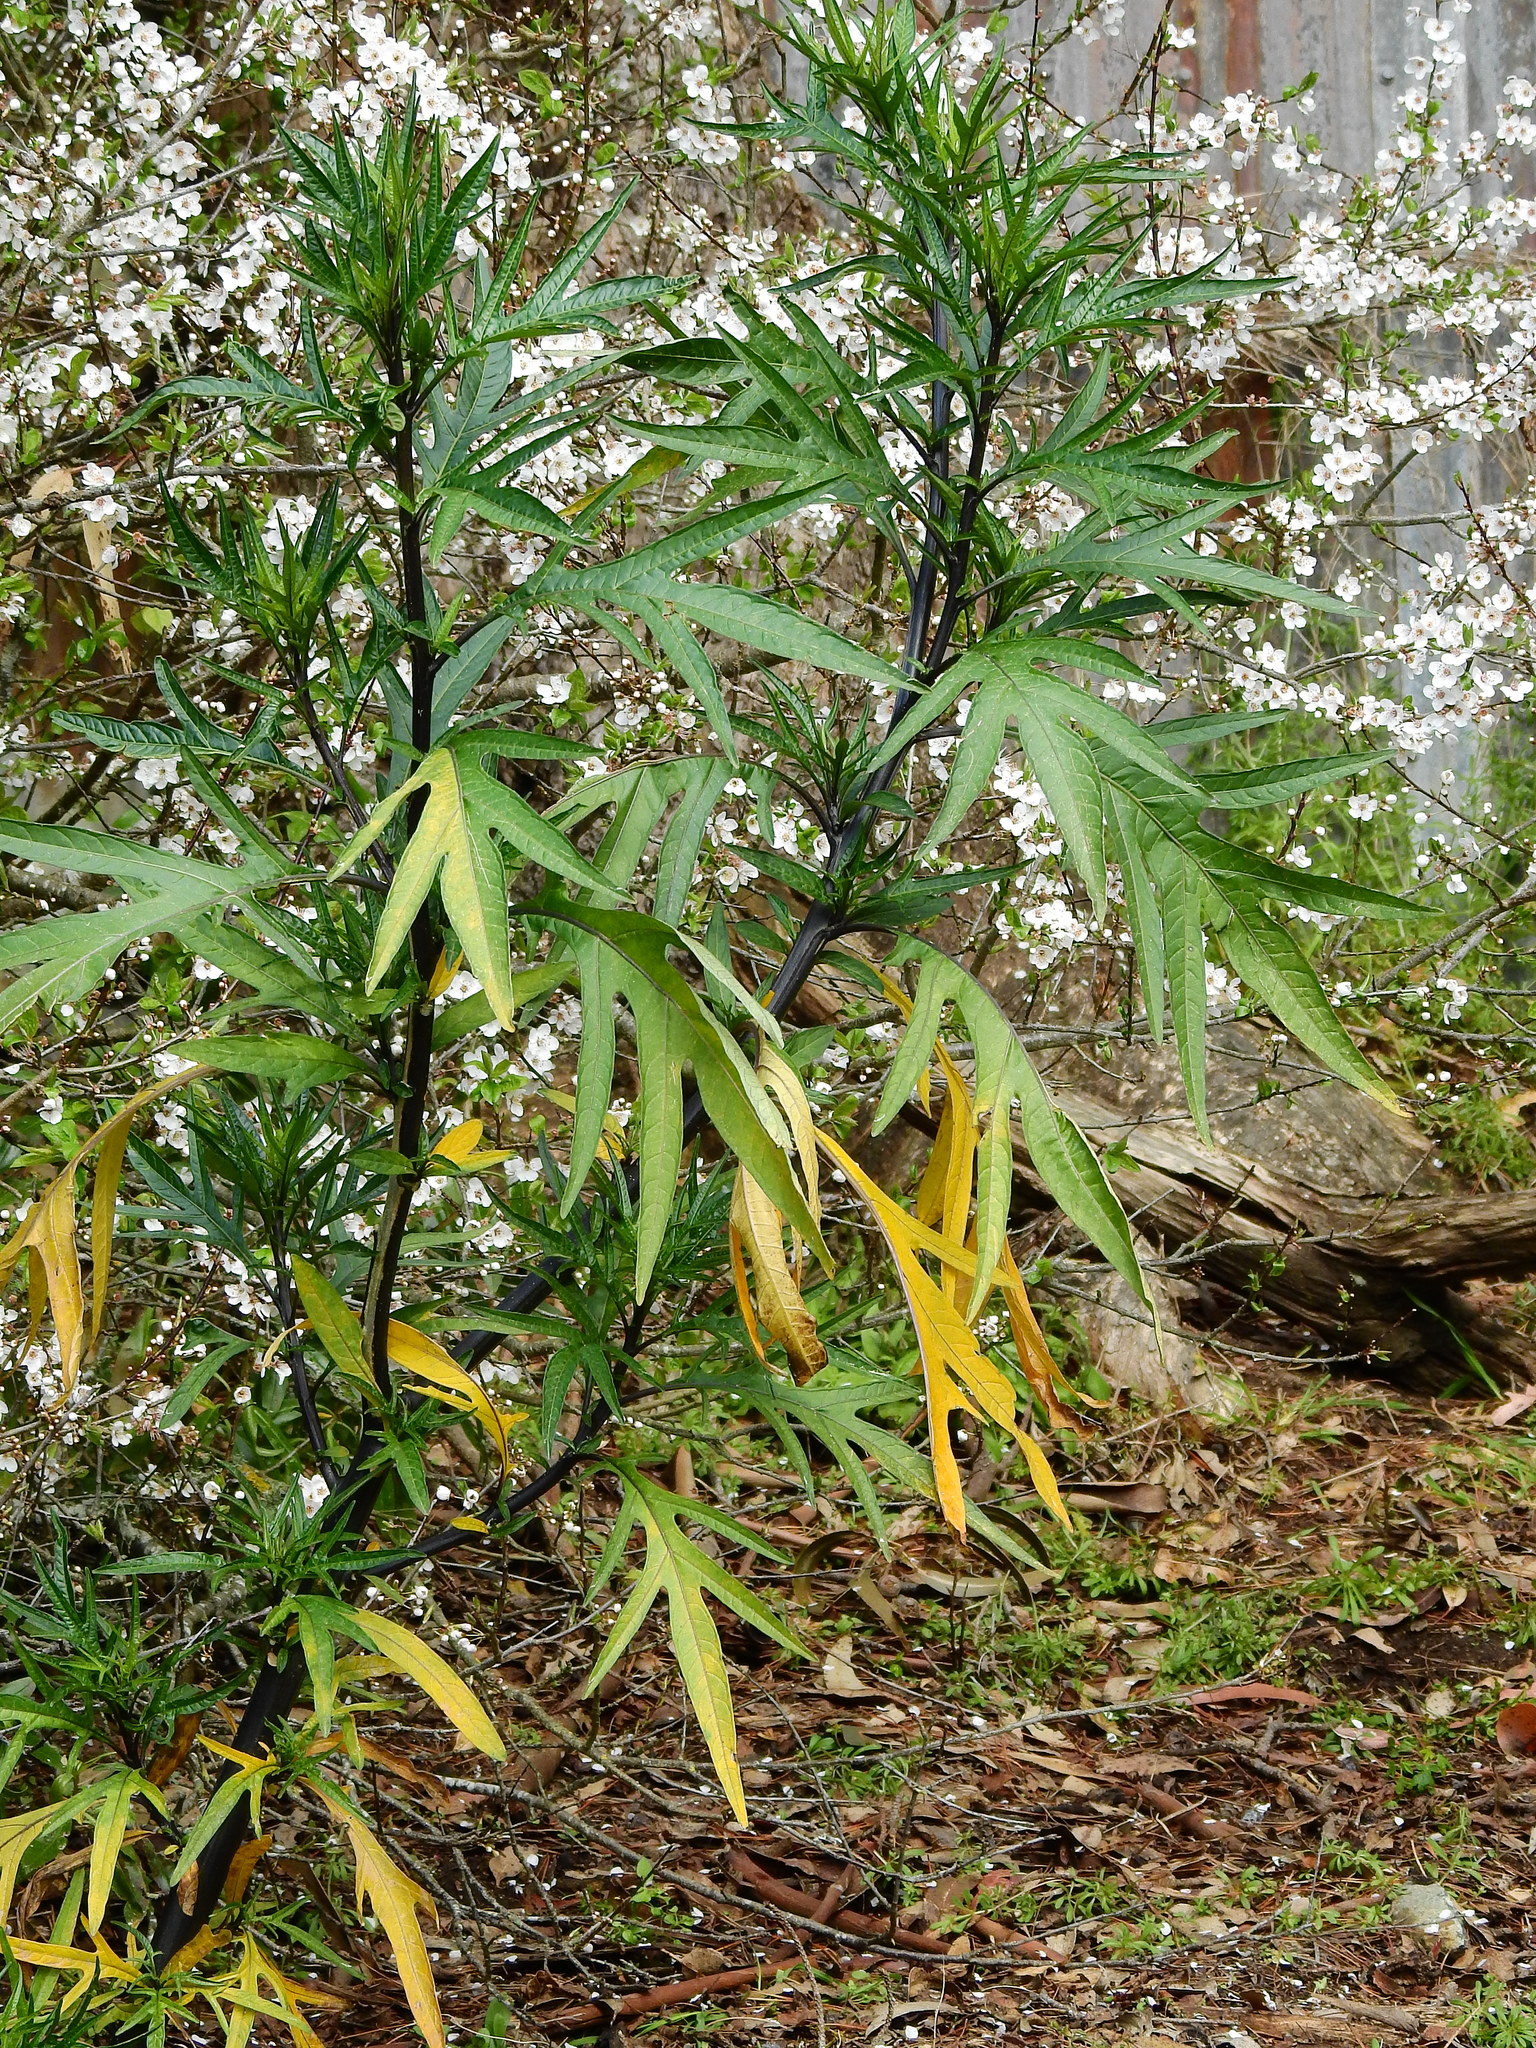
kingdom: Plantae
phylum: Tracheophyta
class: Magnoliopsida
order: Solanales
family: Solanaceae
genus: Solanum
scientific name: Solanum laciniatum
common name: Kangaroo-apple
